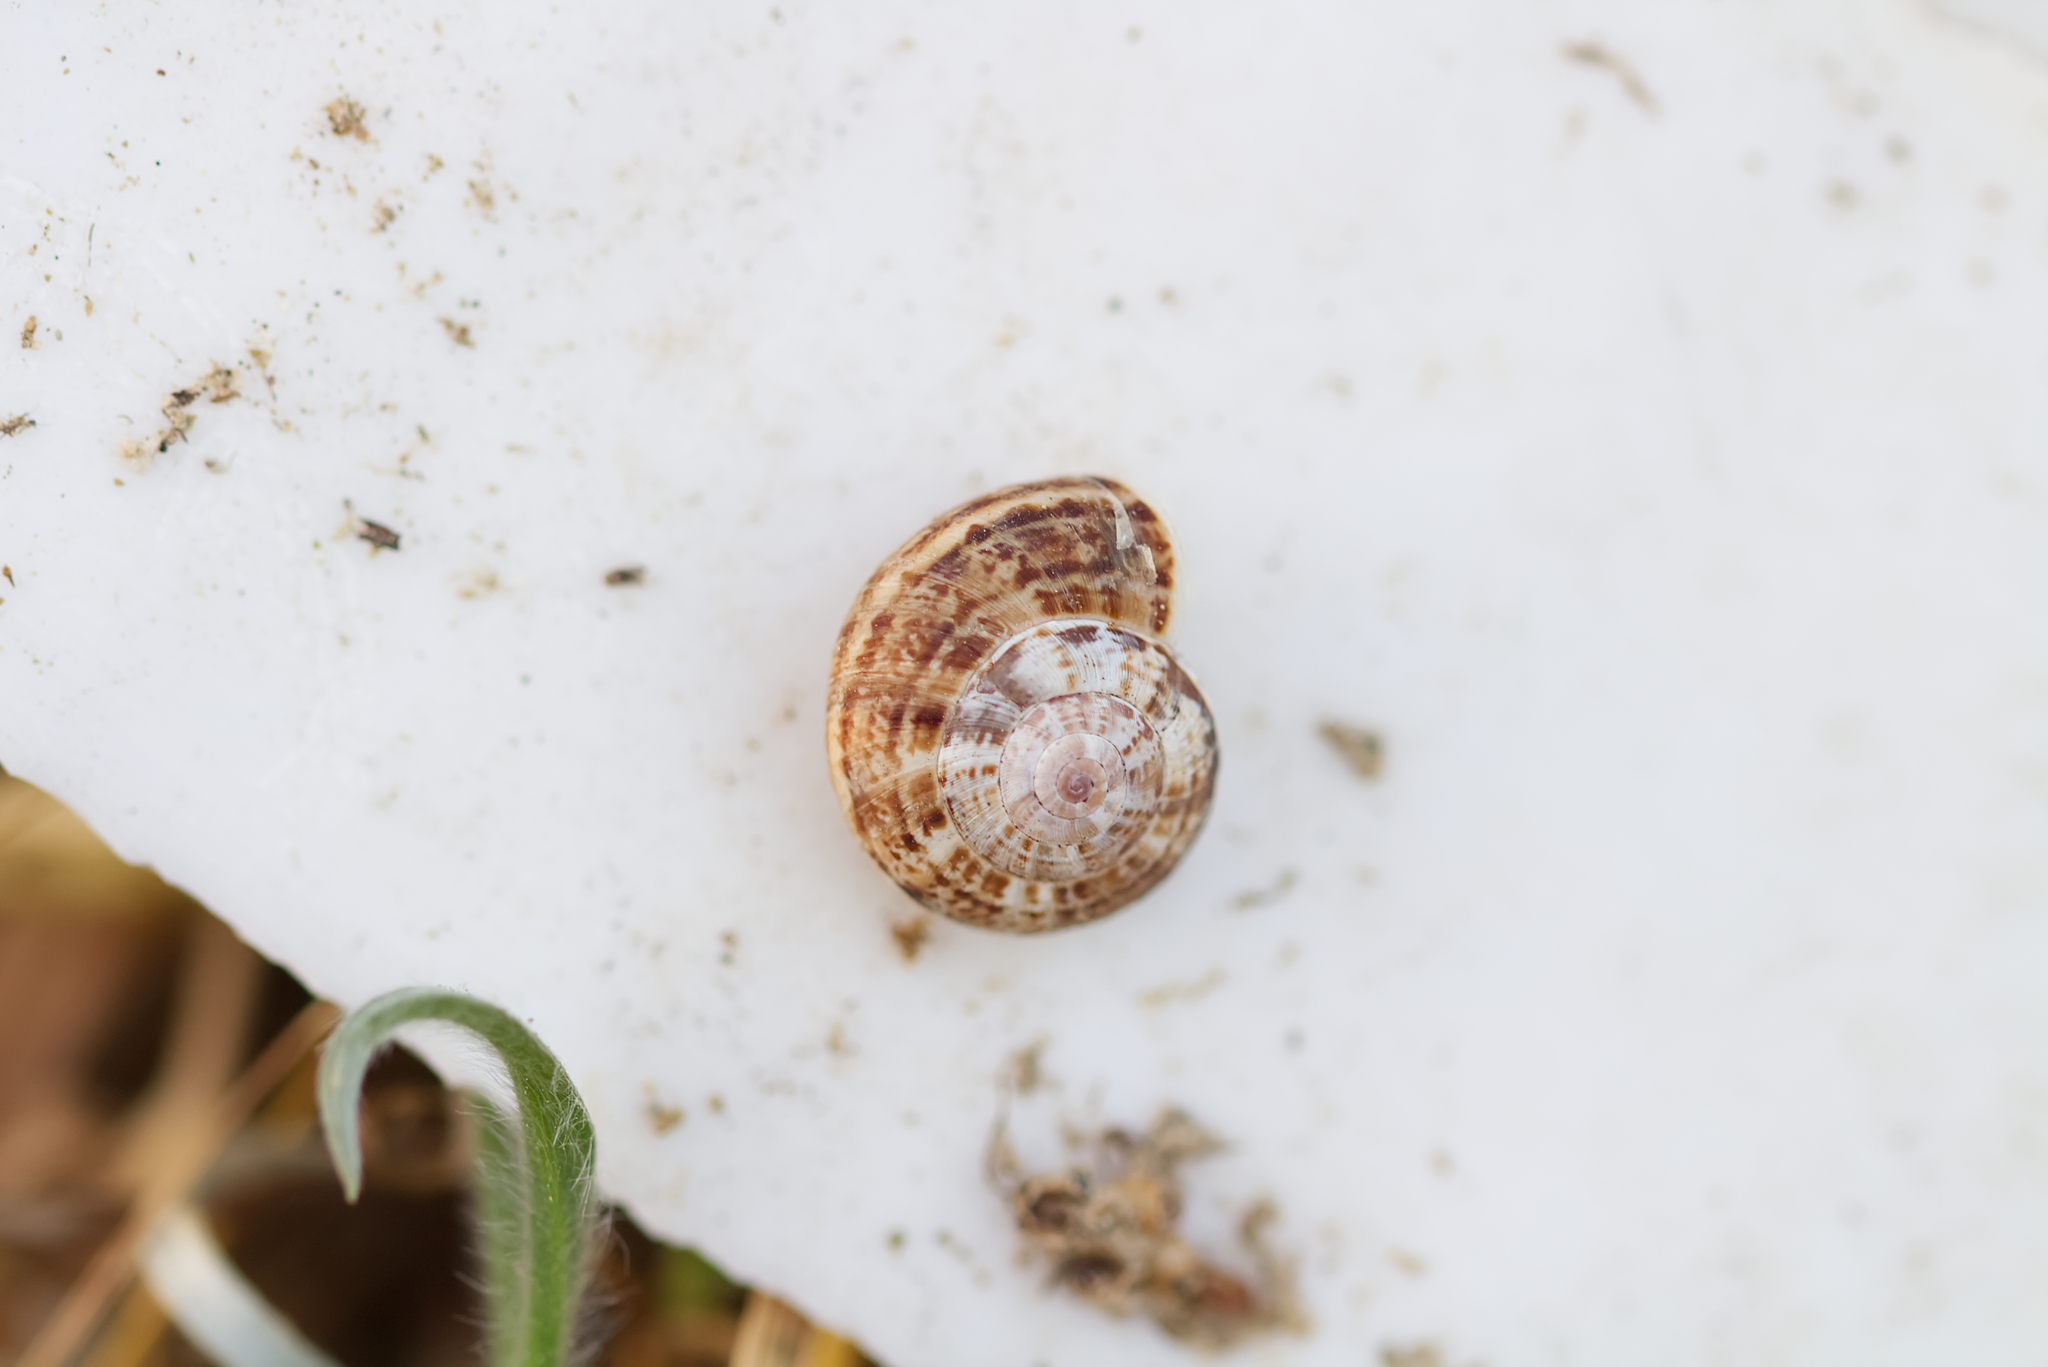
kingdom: Animalia
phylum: Mollusca
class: Gastropoda
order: Stylommatophora
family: Geomitridae
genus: Xeropicta
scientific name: Xeropicta krynickii
